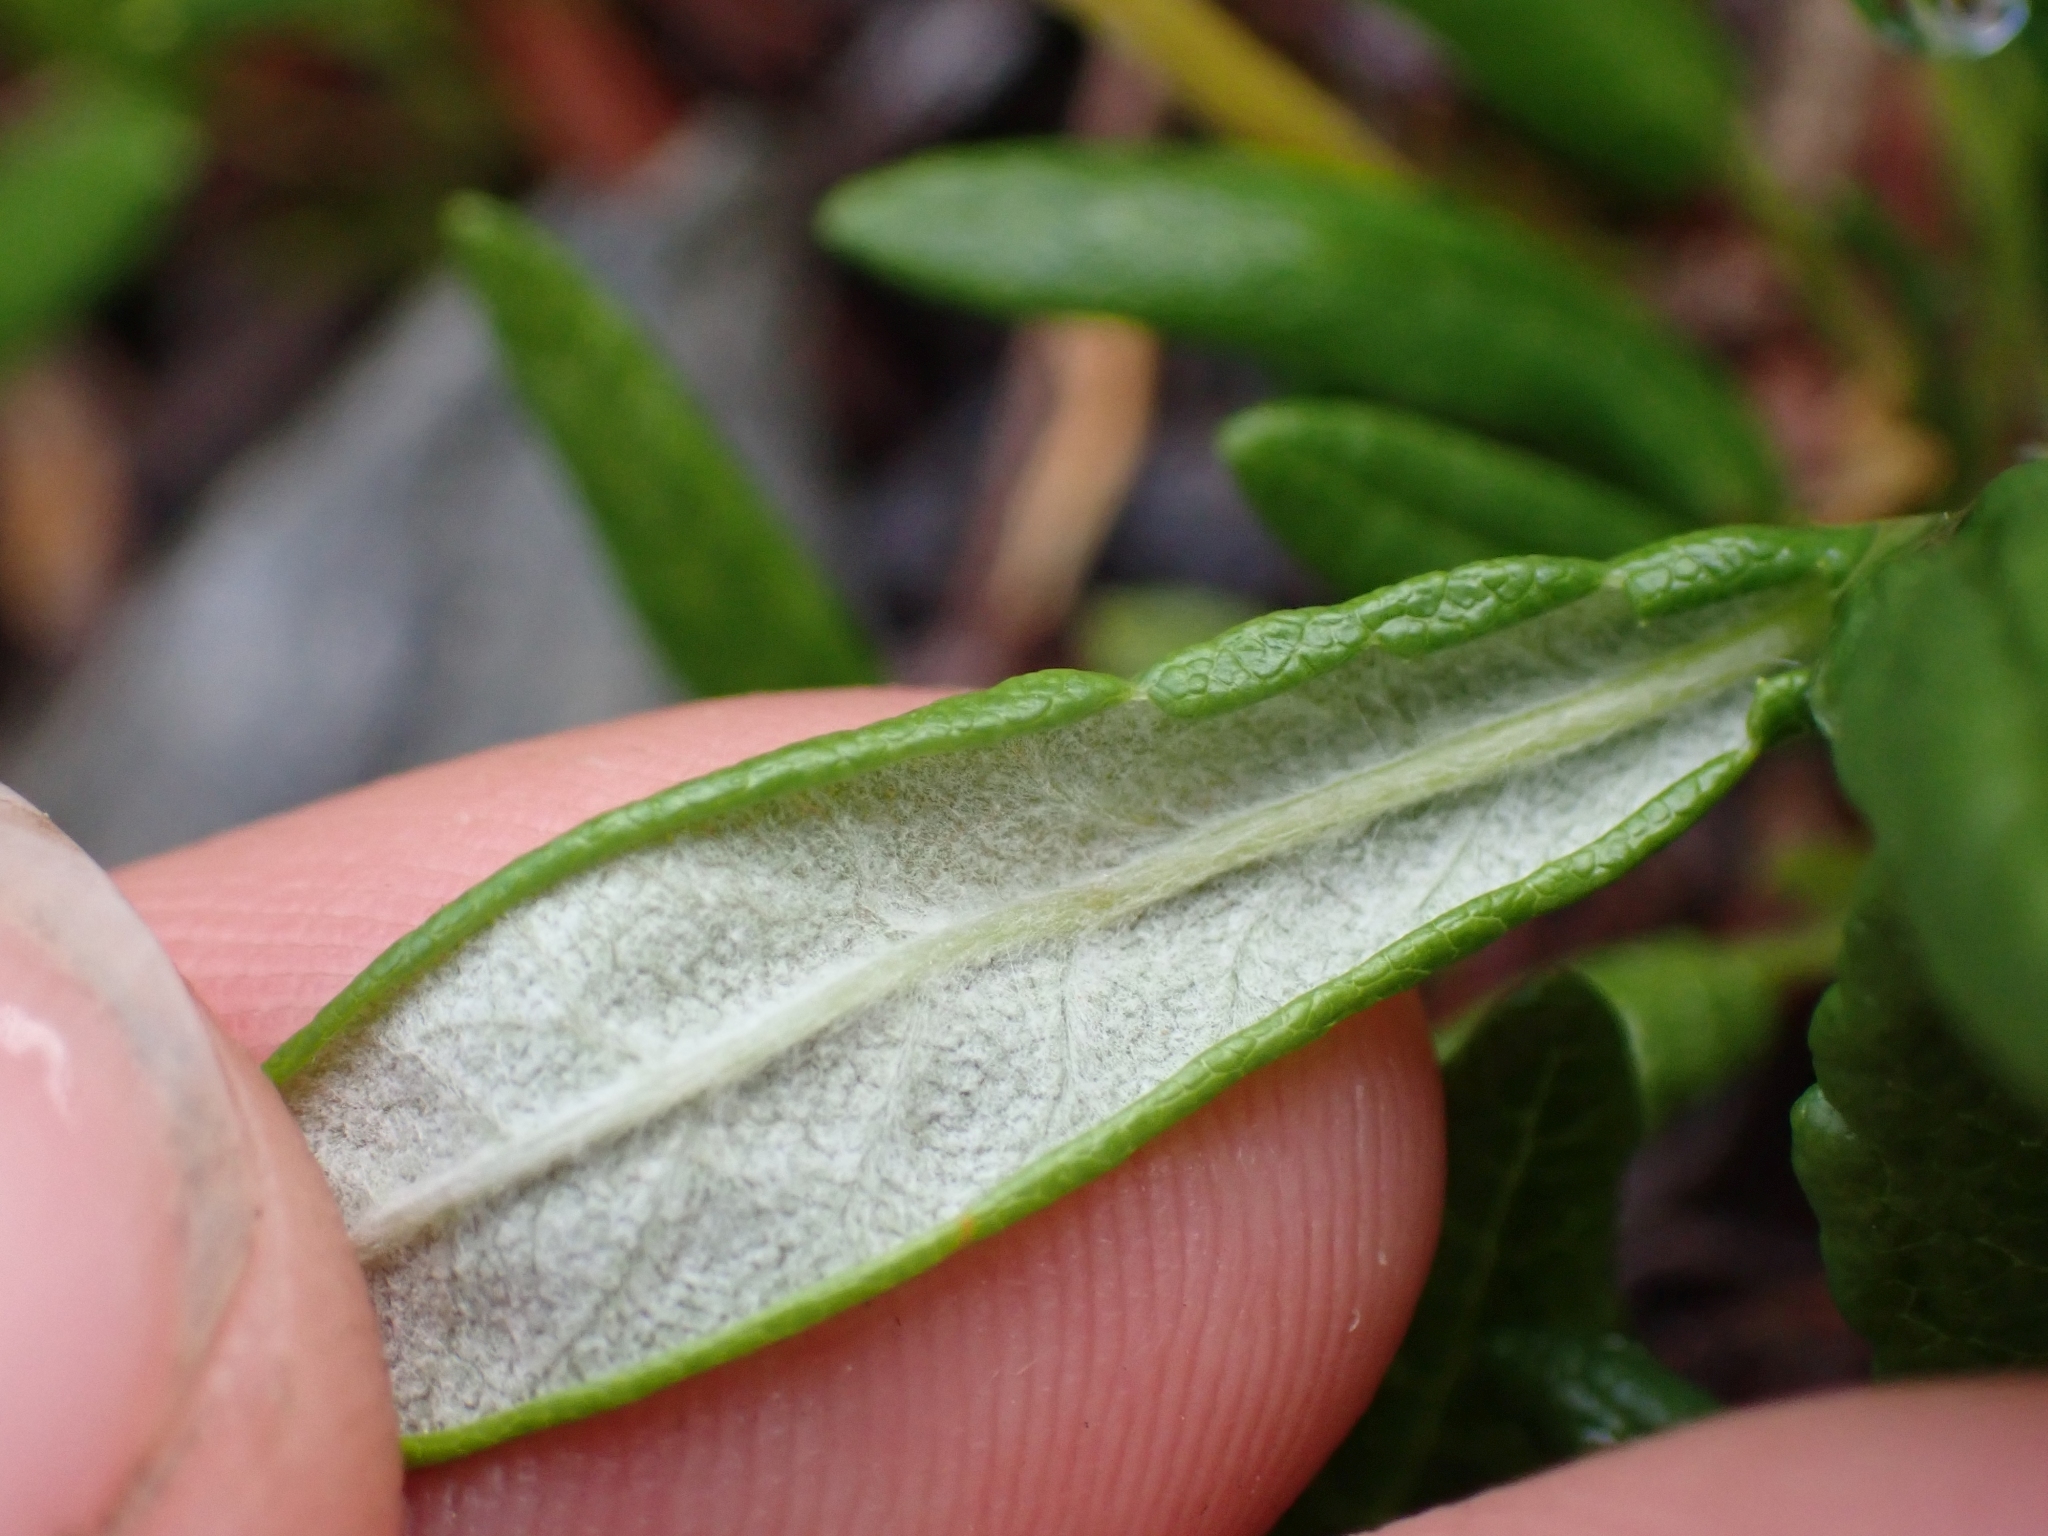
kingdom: Plantae
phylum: Tracheophyta
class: Magnoliopsida
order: Rosales
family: Rosaceae
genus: Dryas
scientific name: Dryas integrifolia
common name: Entire-leaved mountain avens
